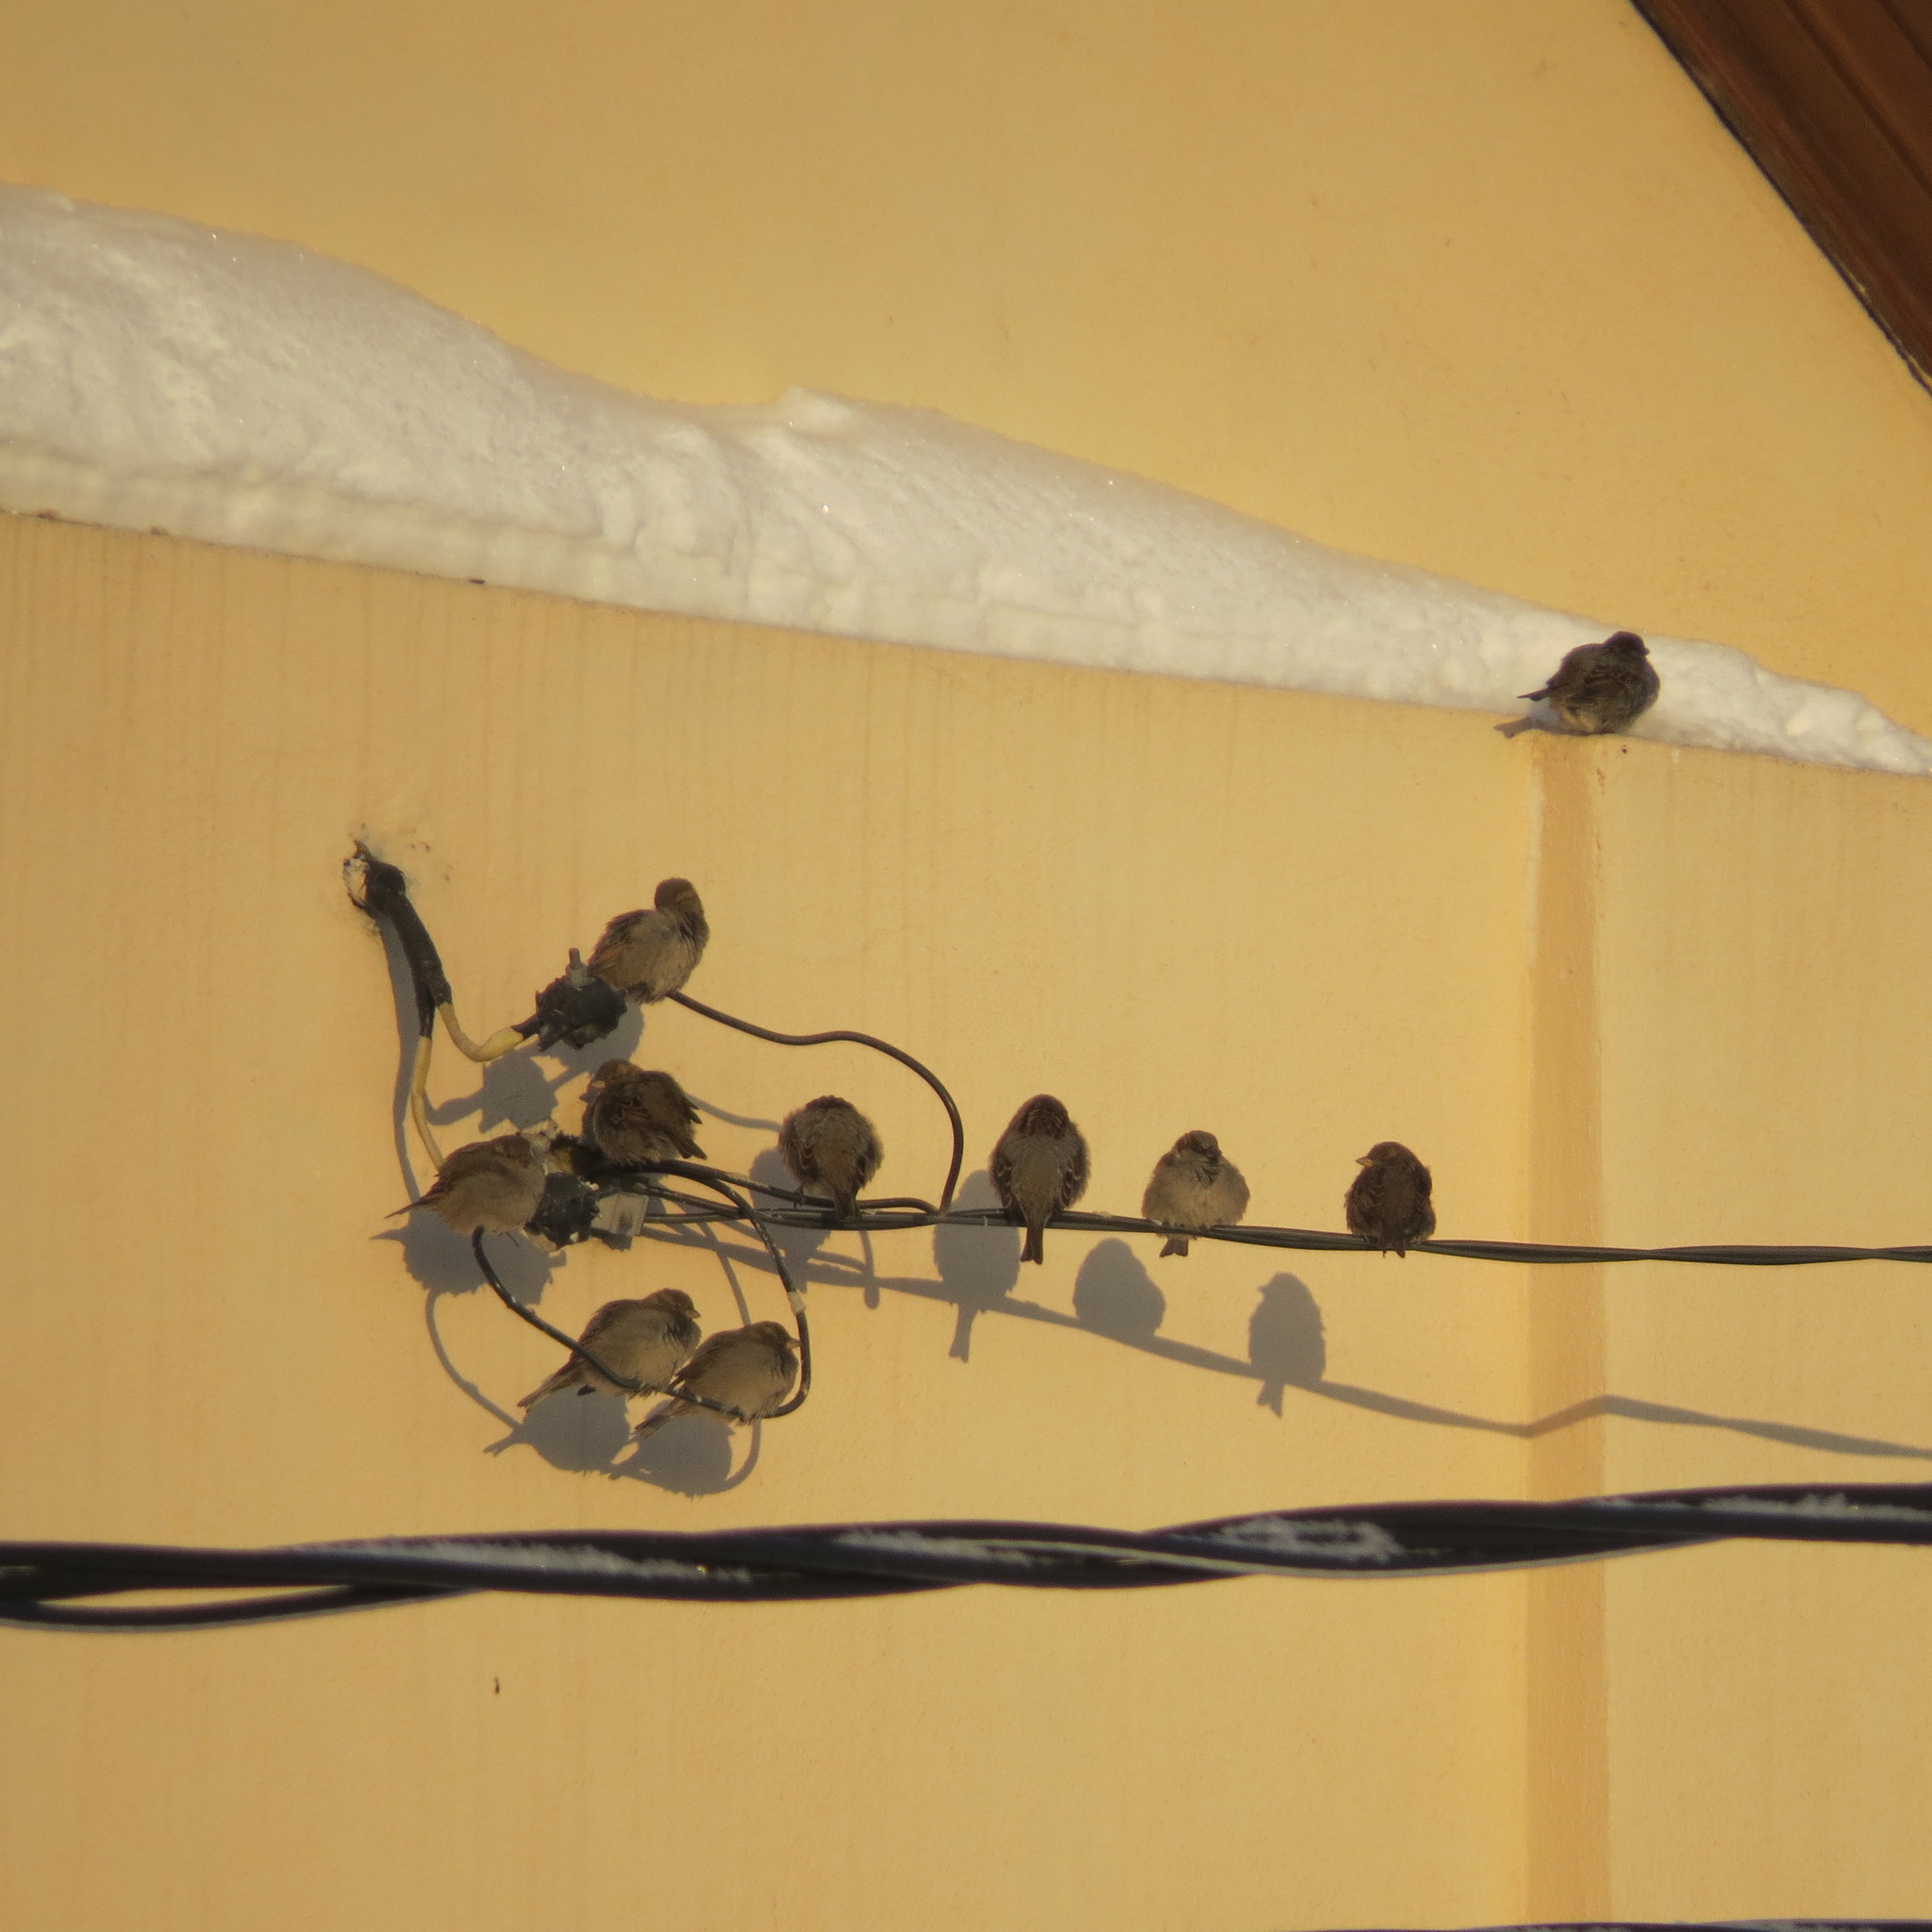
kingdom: Animalia
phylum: Chordata
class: Aves
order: Passeriformes
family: Passeridae
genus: Passer
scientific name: Passer domesticus
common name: House sparrow
